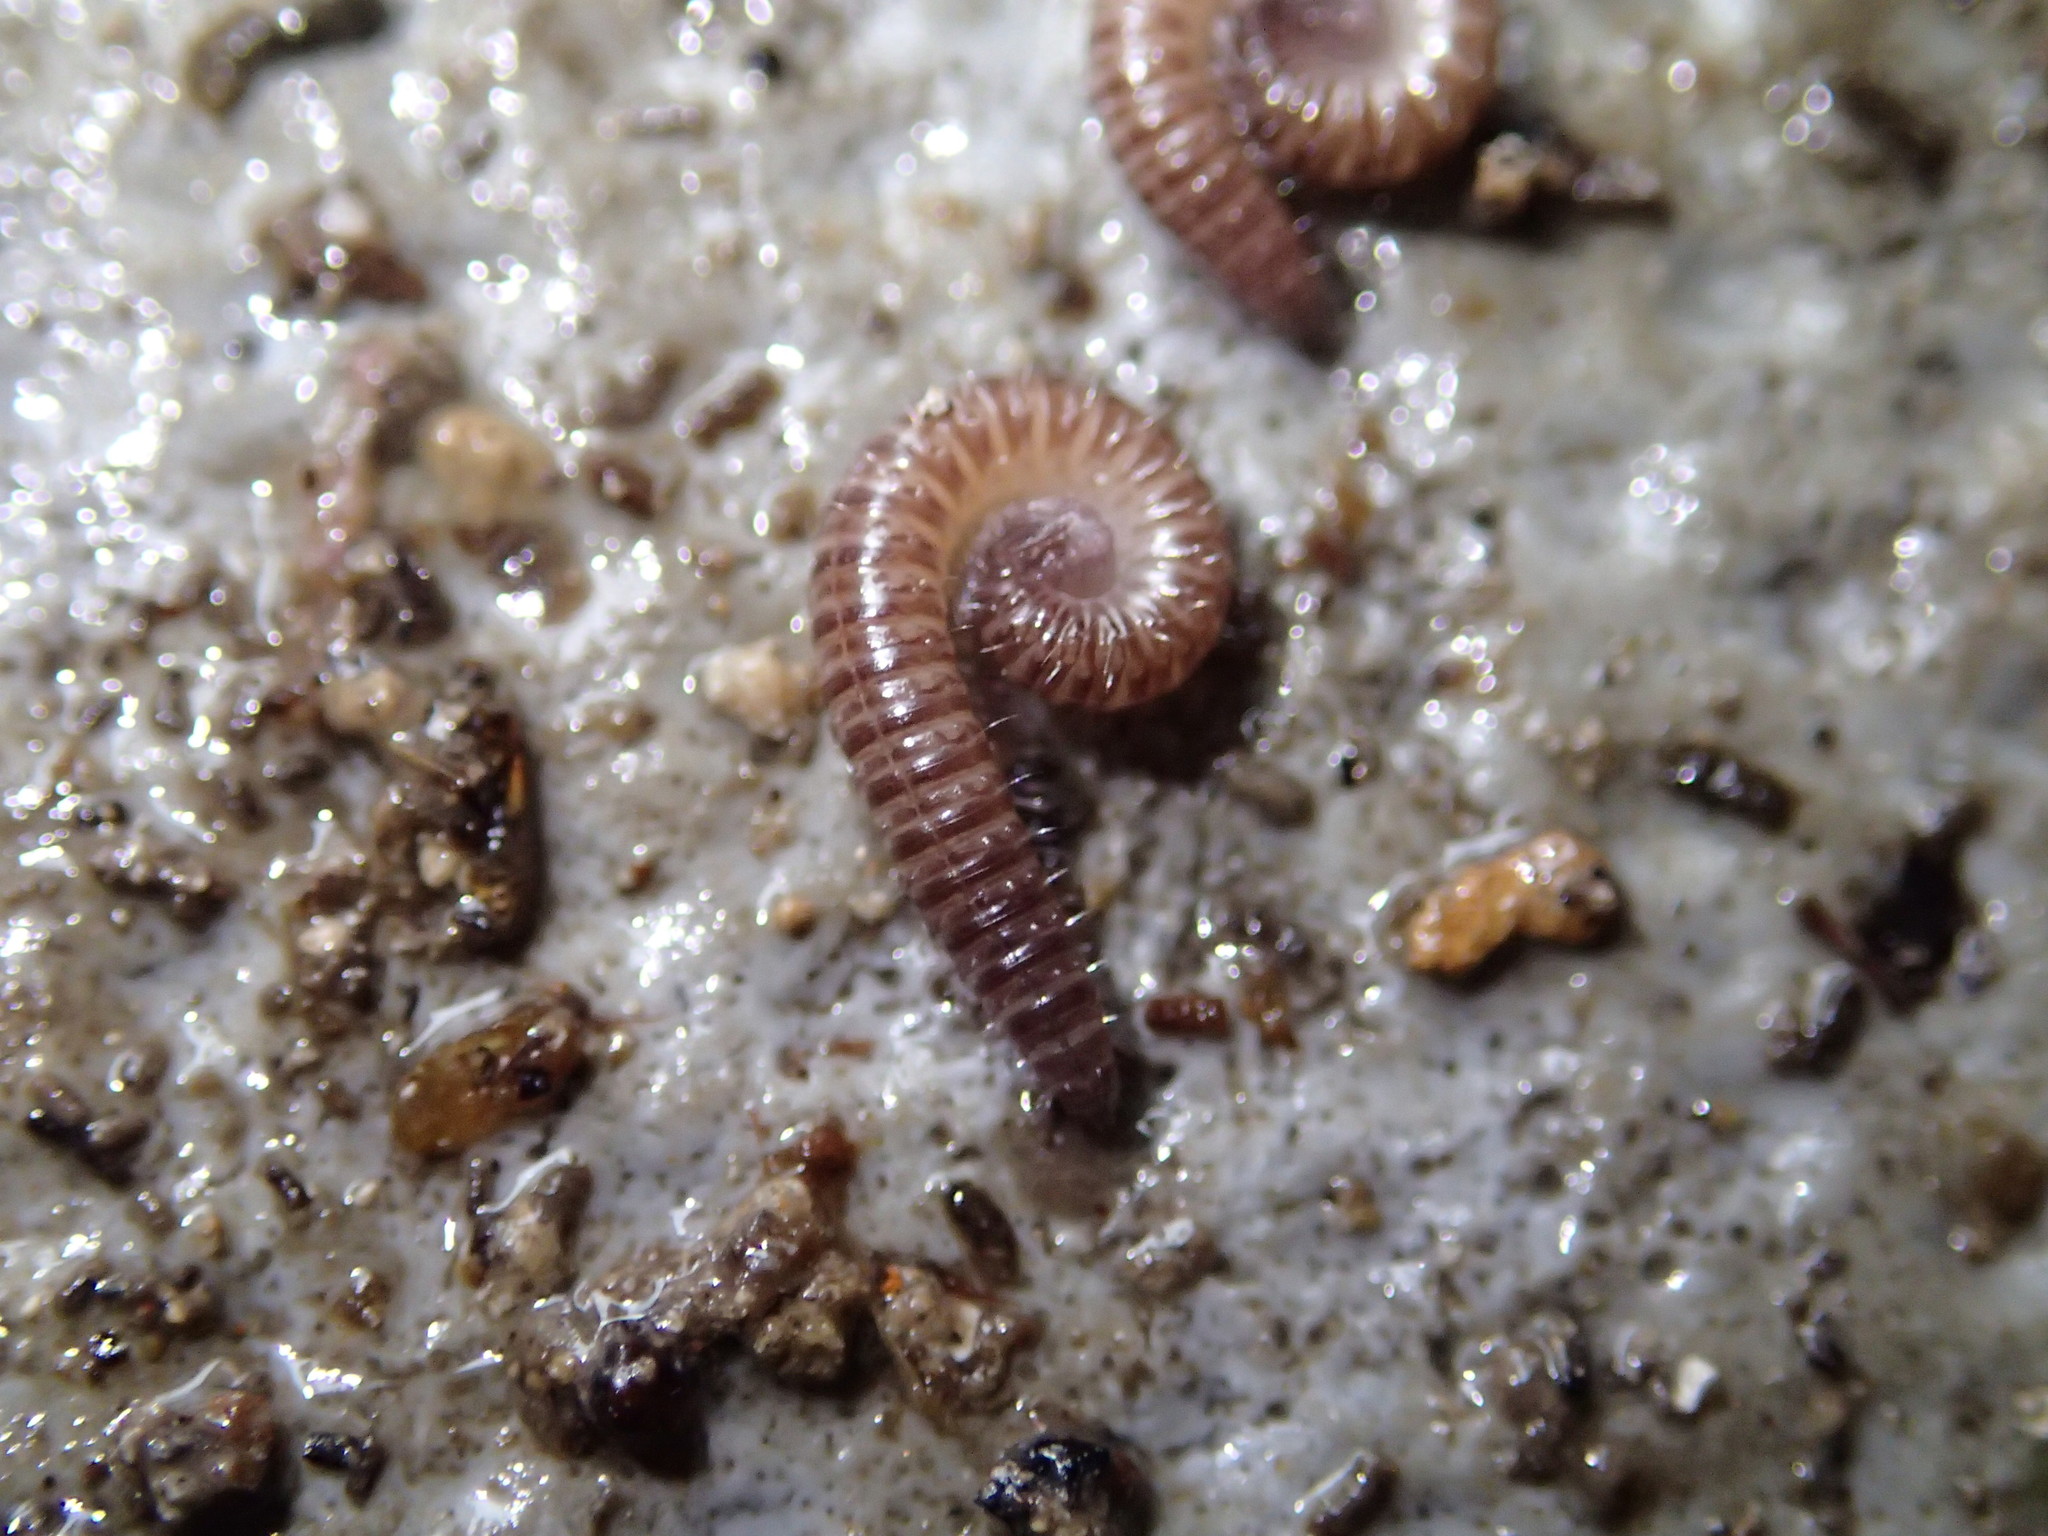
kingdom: Animalia
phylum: Arthropoda
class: Diplopoda
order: Chordeumatida
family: Anthroleucosomatidae
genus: Anamastigona
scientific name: Anamastigona
